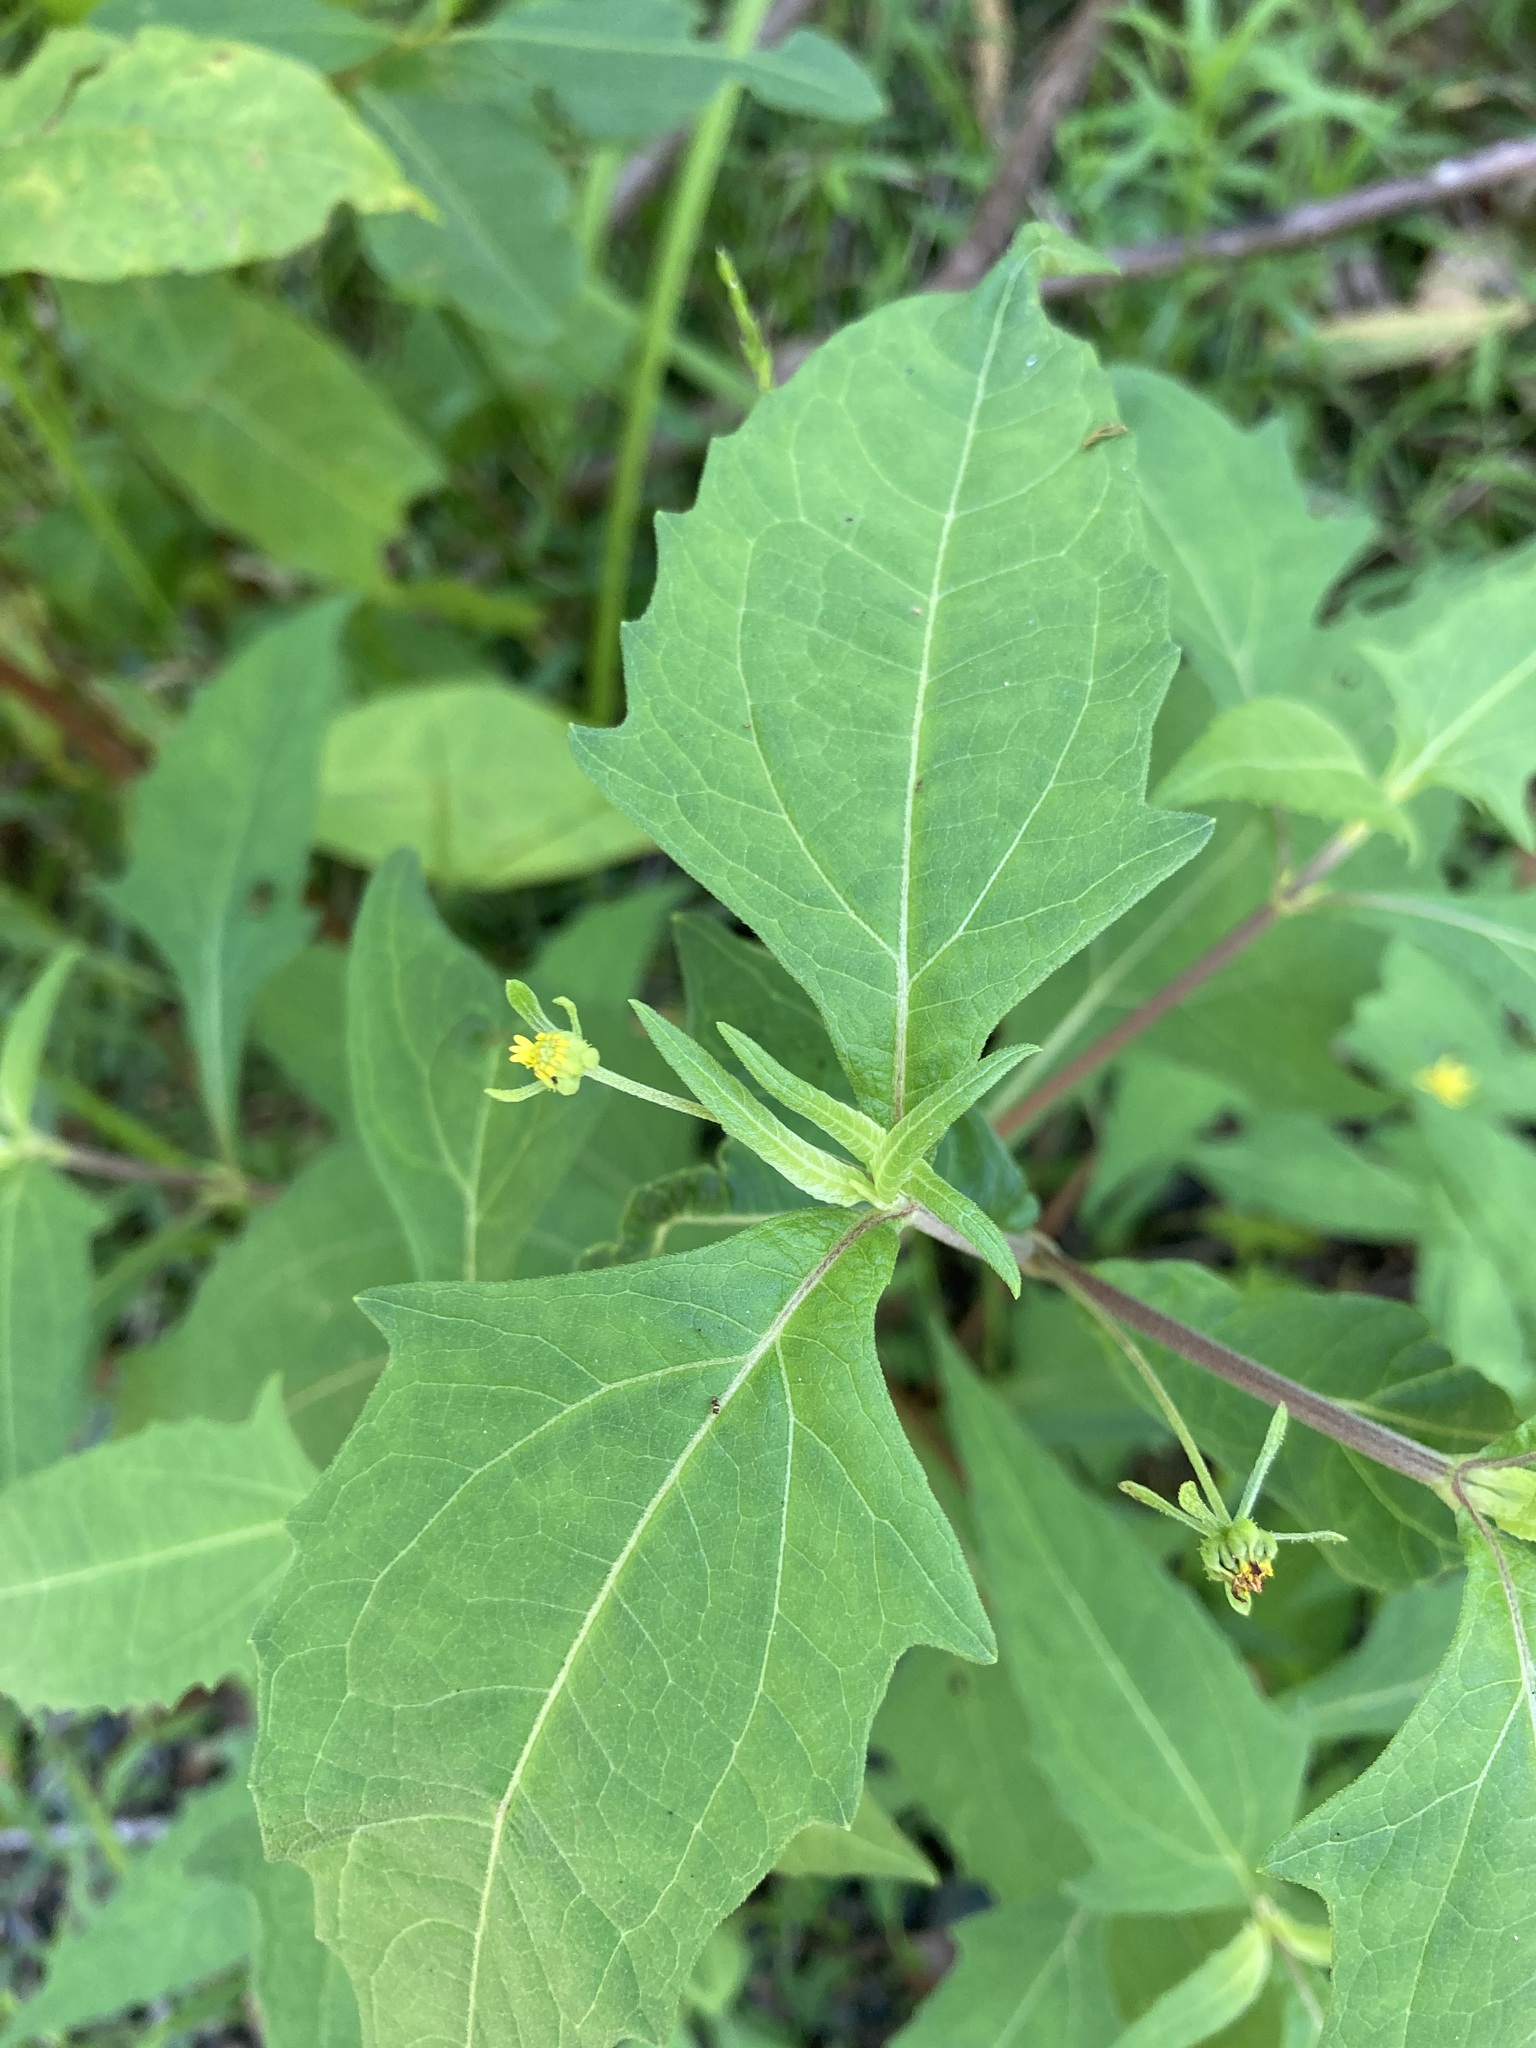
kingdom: Plantae
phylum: Tracheophyta
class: Magnoliopsida
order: Asterales
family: Asteraceae
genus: Sigesbeckia
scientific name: Sigesbeckia orientalis
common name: Eastern st paul's-wort
